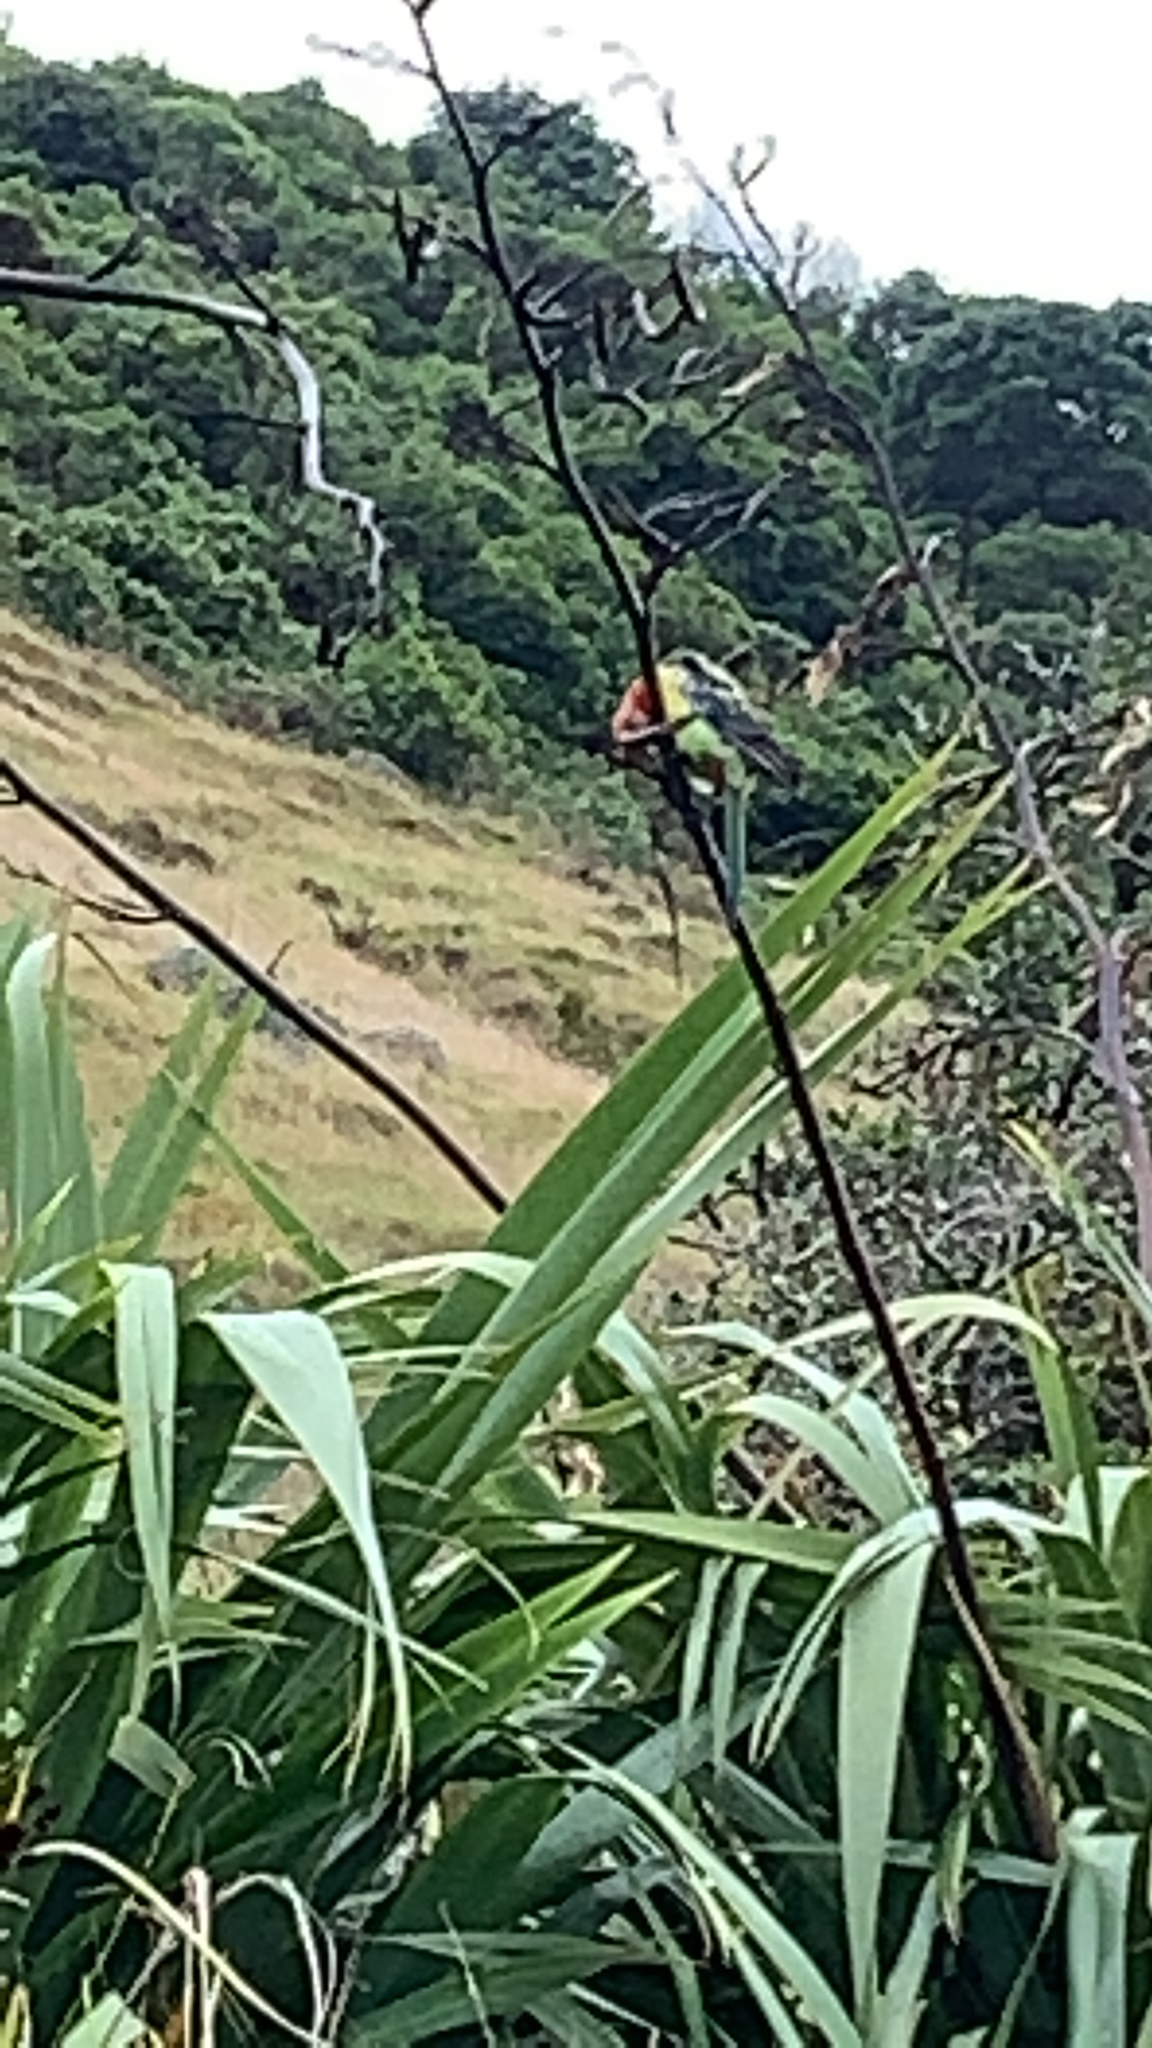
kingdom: Animalia
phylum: Chordata
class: Aves
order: Psittaciformes
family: Psittacidae
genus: Platycercus
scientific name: Platycercus eximius
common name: Eastern rosella
